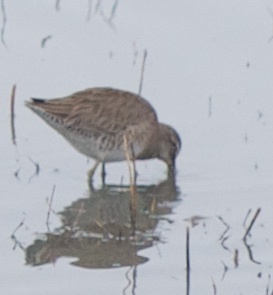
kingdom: Animalia
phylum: Chordata
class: Aves
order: Charadriiformes
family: Scolopacidae
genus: Limnodromus
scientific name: Limnodromus scolopaceus
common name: Long-billed dowitcher
